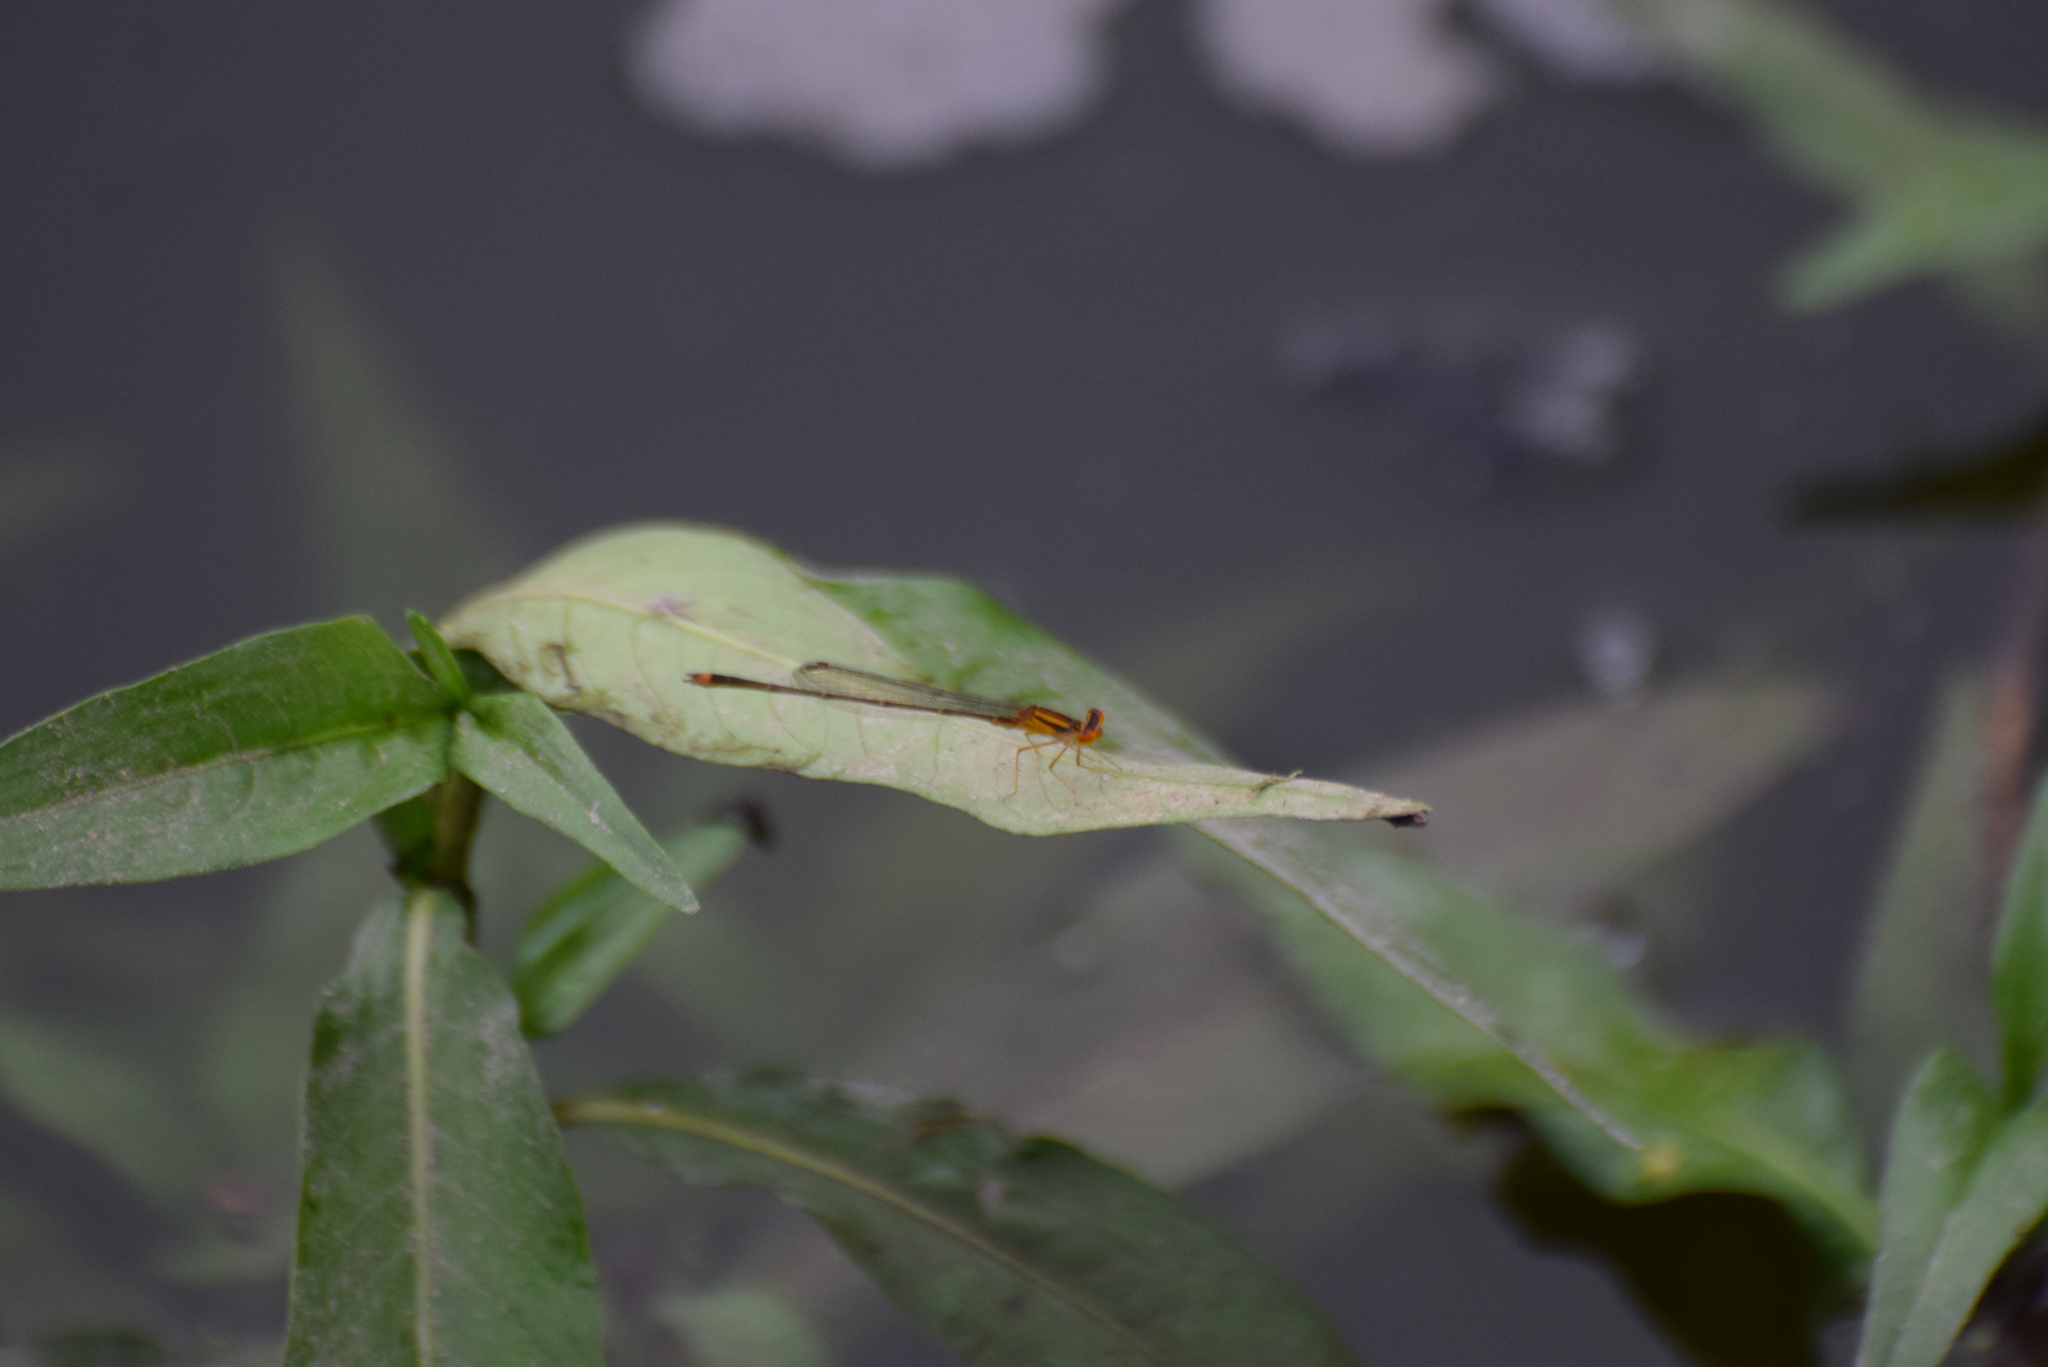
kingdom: Animalia
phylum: Arthropoda
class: Insecta
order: Odonata
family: Coenagrionidae
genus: Enallagma
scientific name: Enallagma signatum
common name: Orange bluet
